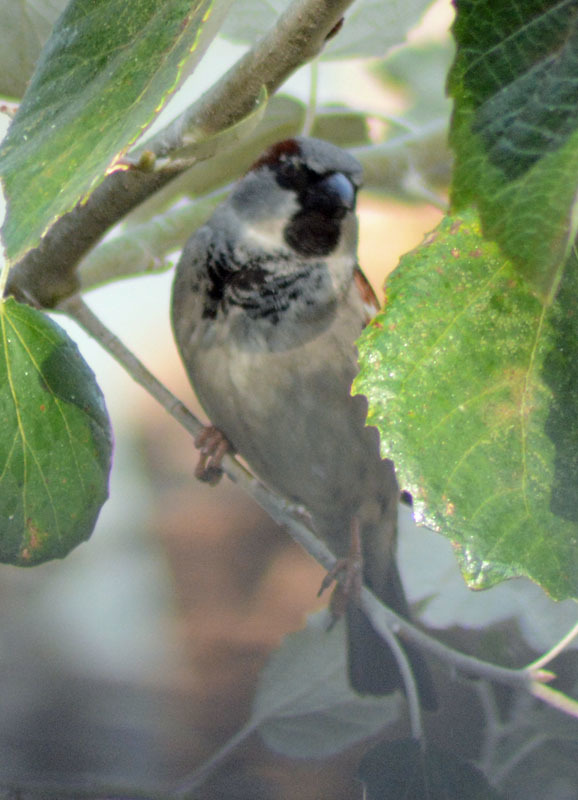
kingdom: Animalia
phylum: Chordata
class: Aves
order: Passeriformes
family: Passeridae
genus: Passer
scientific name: Passer domesticus
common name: House sparrow
